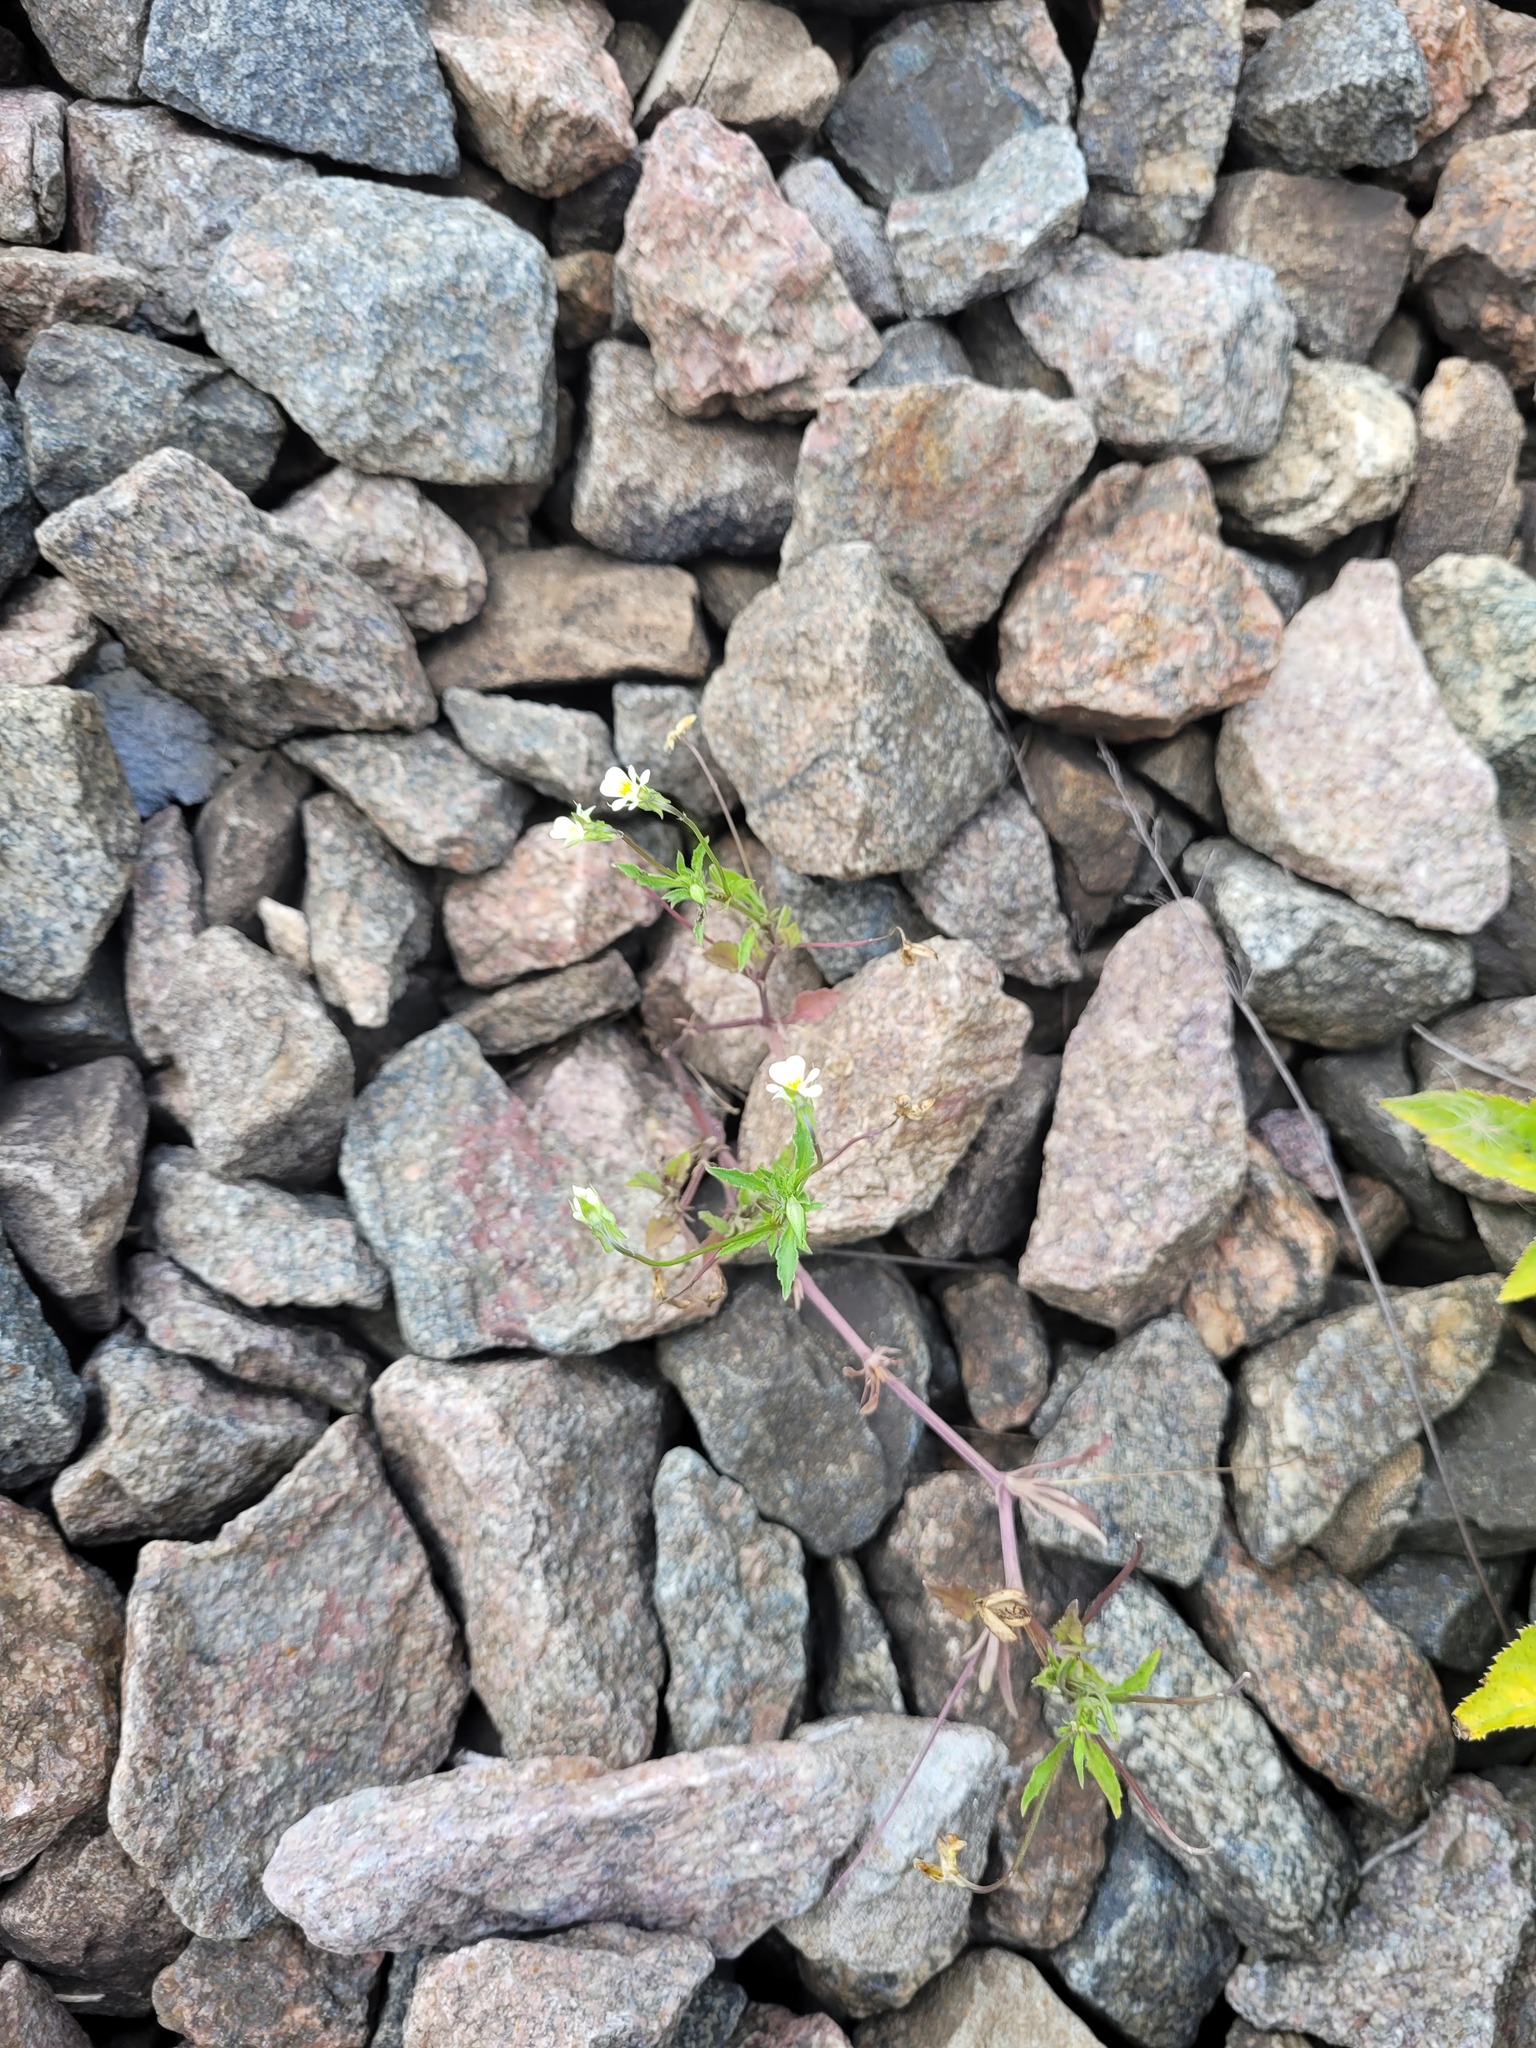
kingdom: Plantae
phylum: Tracheophyta
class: Magnoliopsida
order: Malpighiales
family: Violaceae
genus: Viola
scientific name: Viola arvensis
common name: Field pansy
